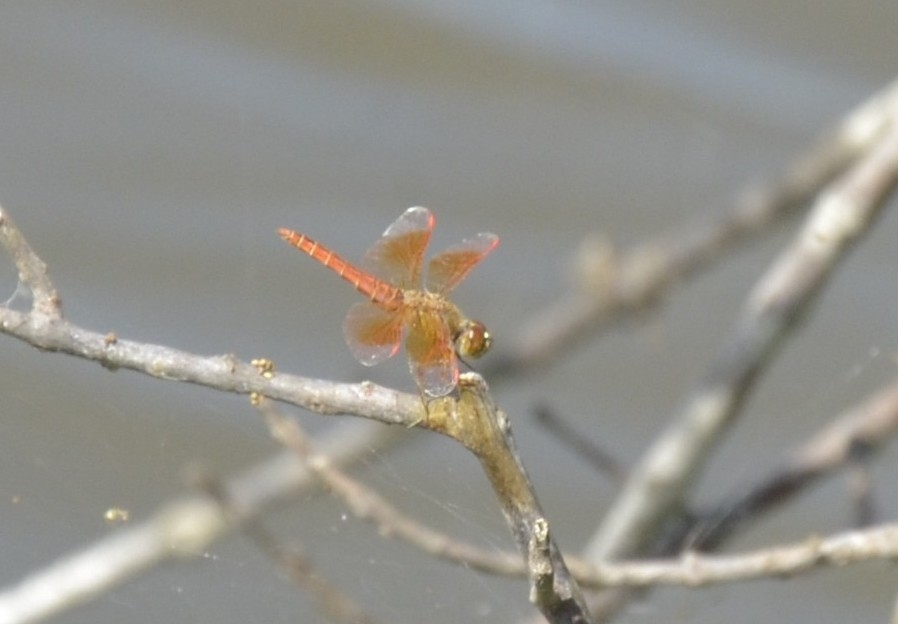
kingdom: Animalia
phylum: Arthropoda
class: Insecta
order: Odonata
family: Libellulidae
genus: Brachythemis
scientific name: Brachythemis contaminata
